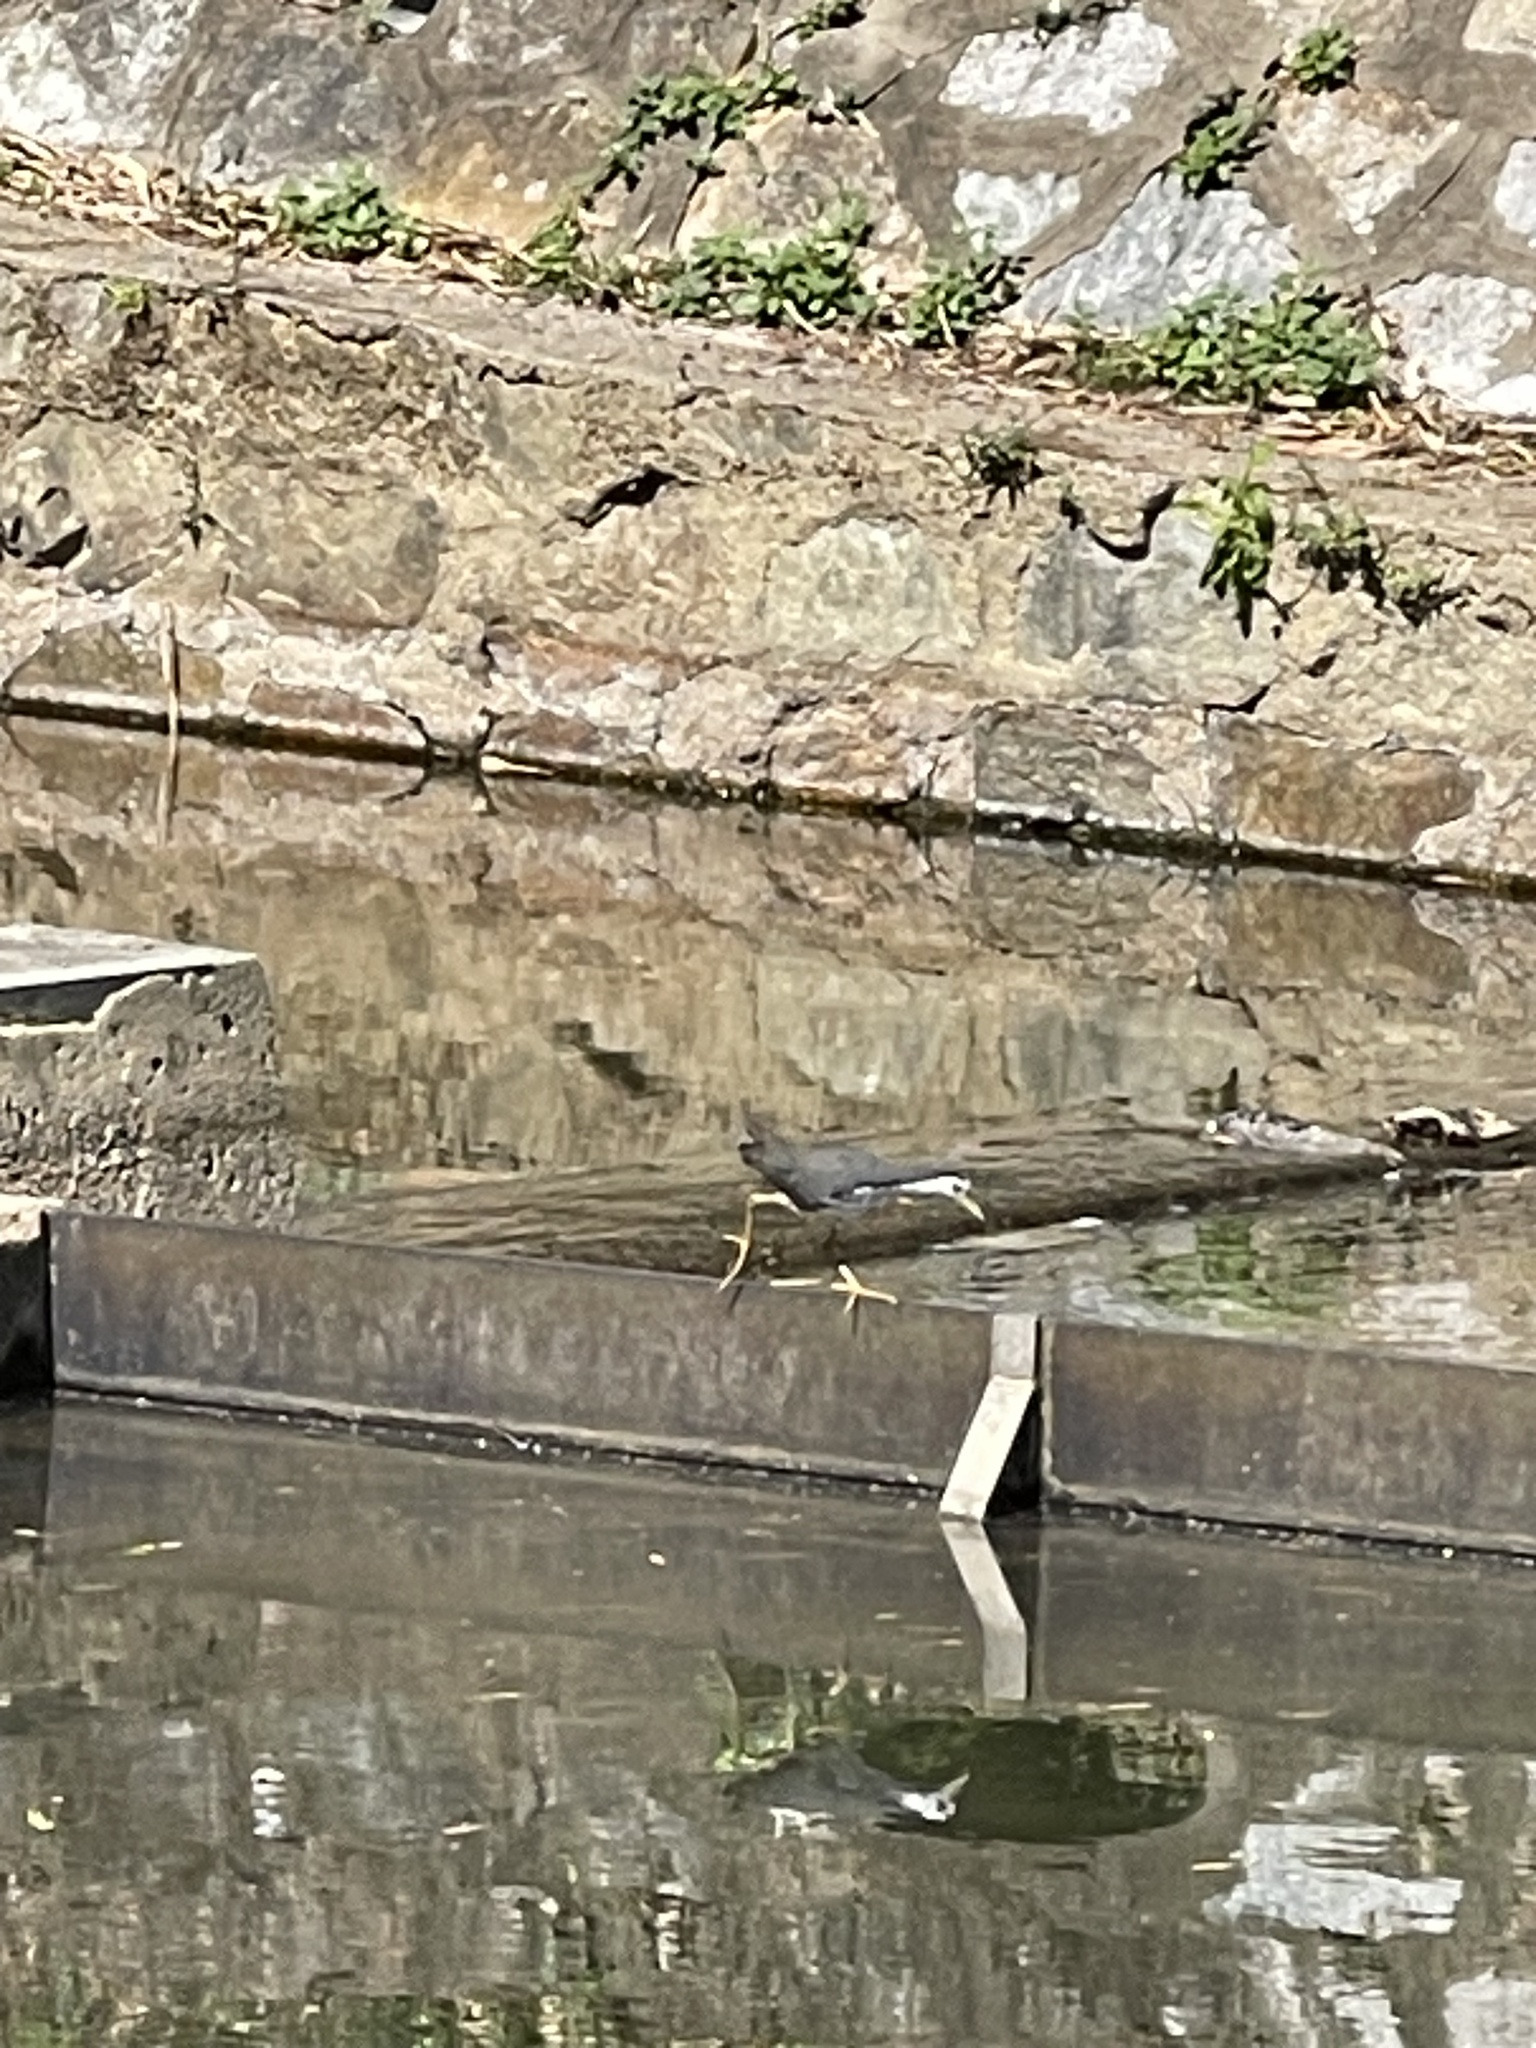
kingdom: Animalia
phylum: Chordata
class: Aves
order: Gruiformes
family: Rallidae
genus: Amaurornis
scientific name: Amaurornis phoenicurus
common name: White-breasted waterhen
